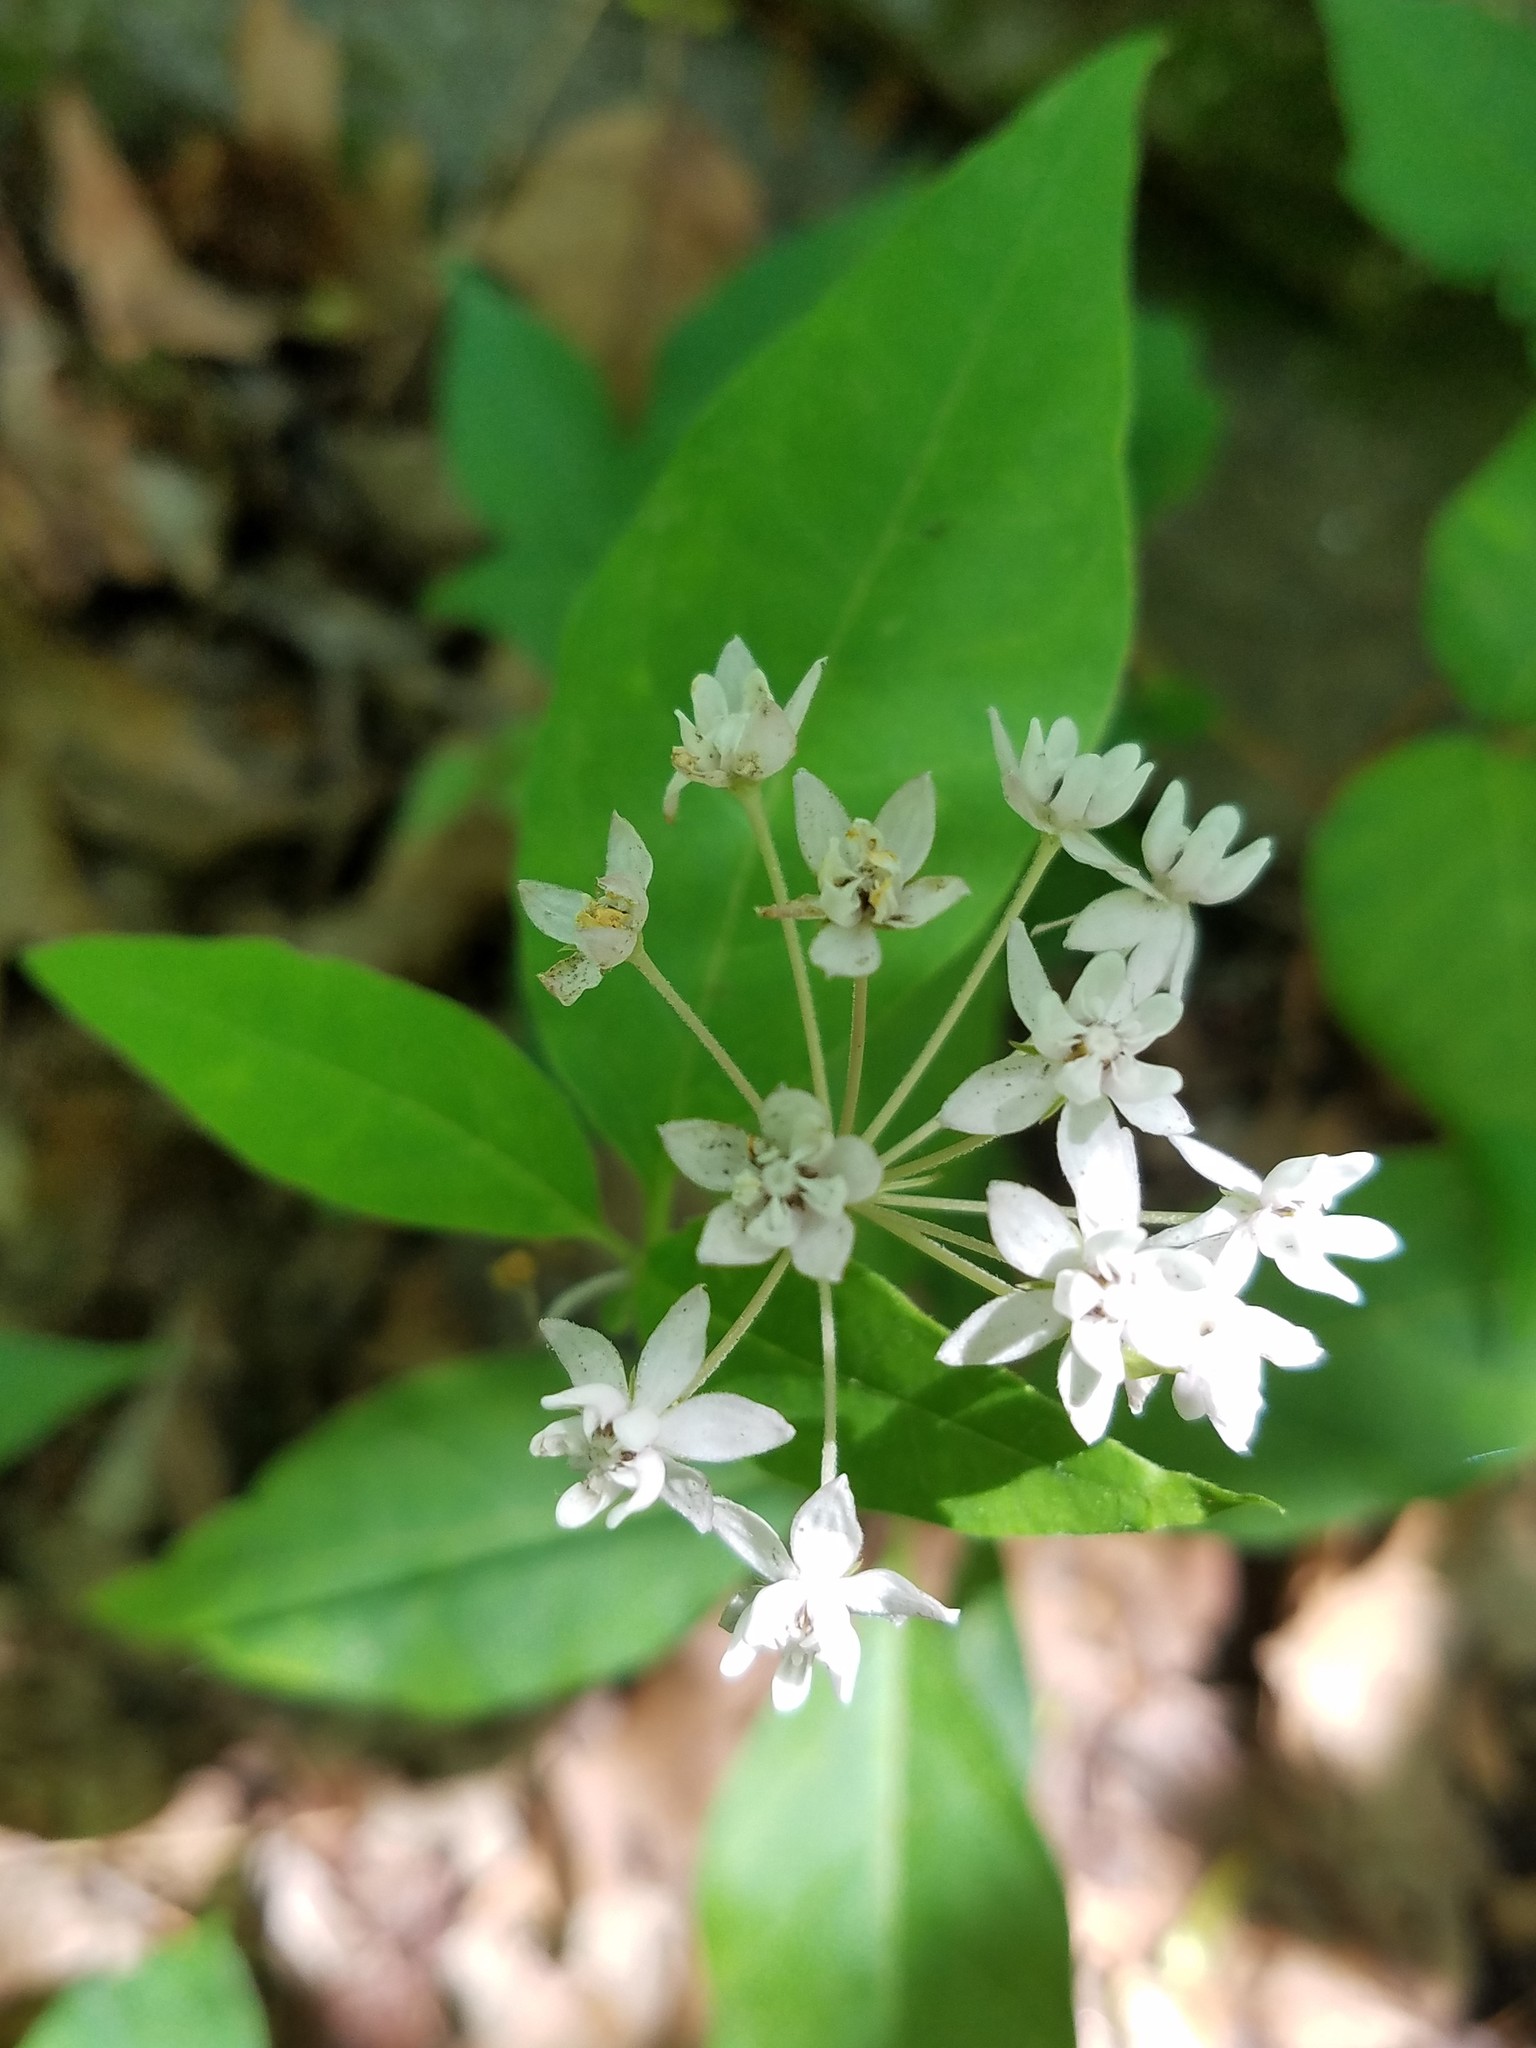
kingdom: Plantae
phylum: Tracheophyta
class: Magnoliopsida
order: Gentianales
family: Apocynaceae
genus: Asclepias
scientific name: Asclepias quadrifolia
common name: Whorled milkweed
